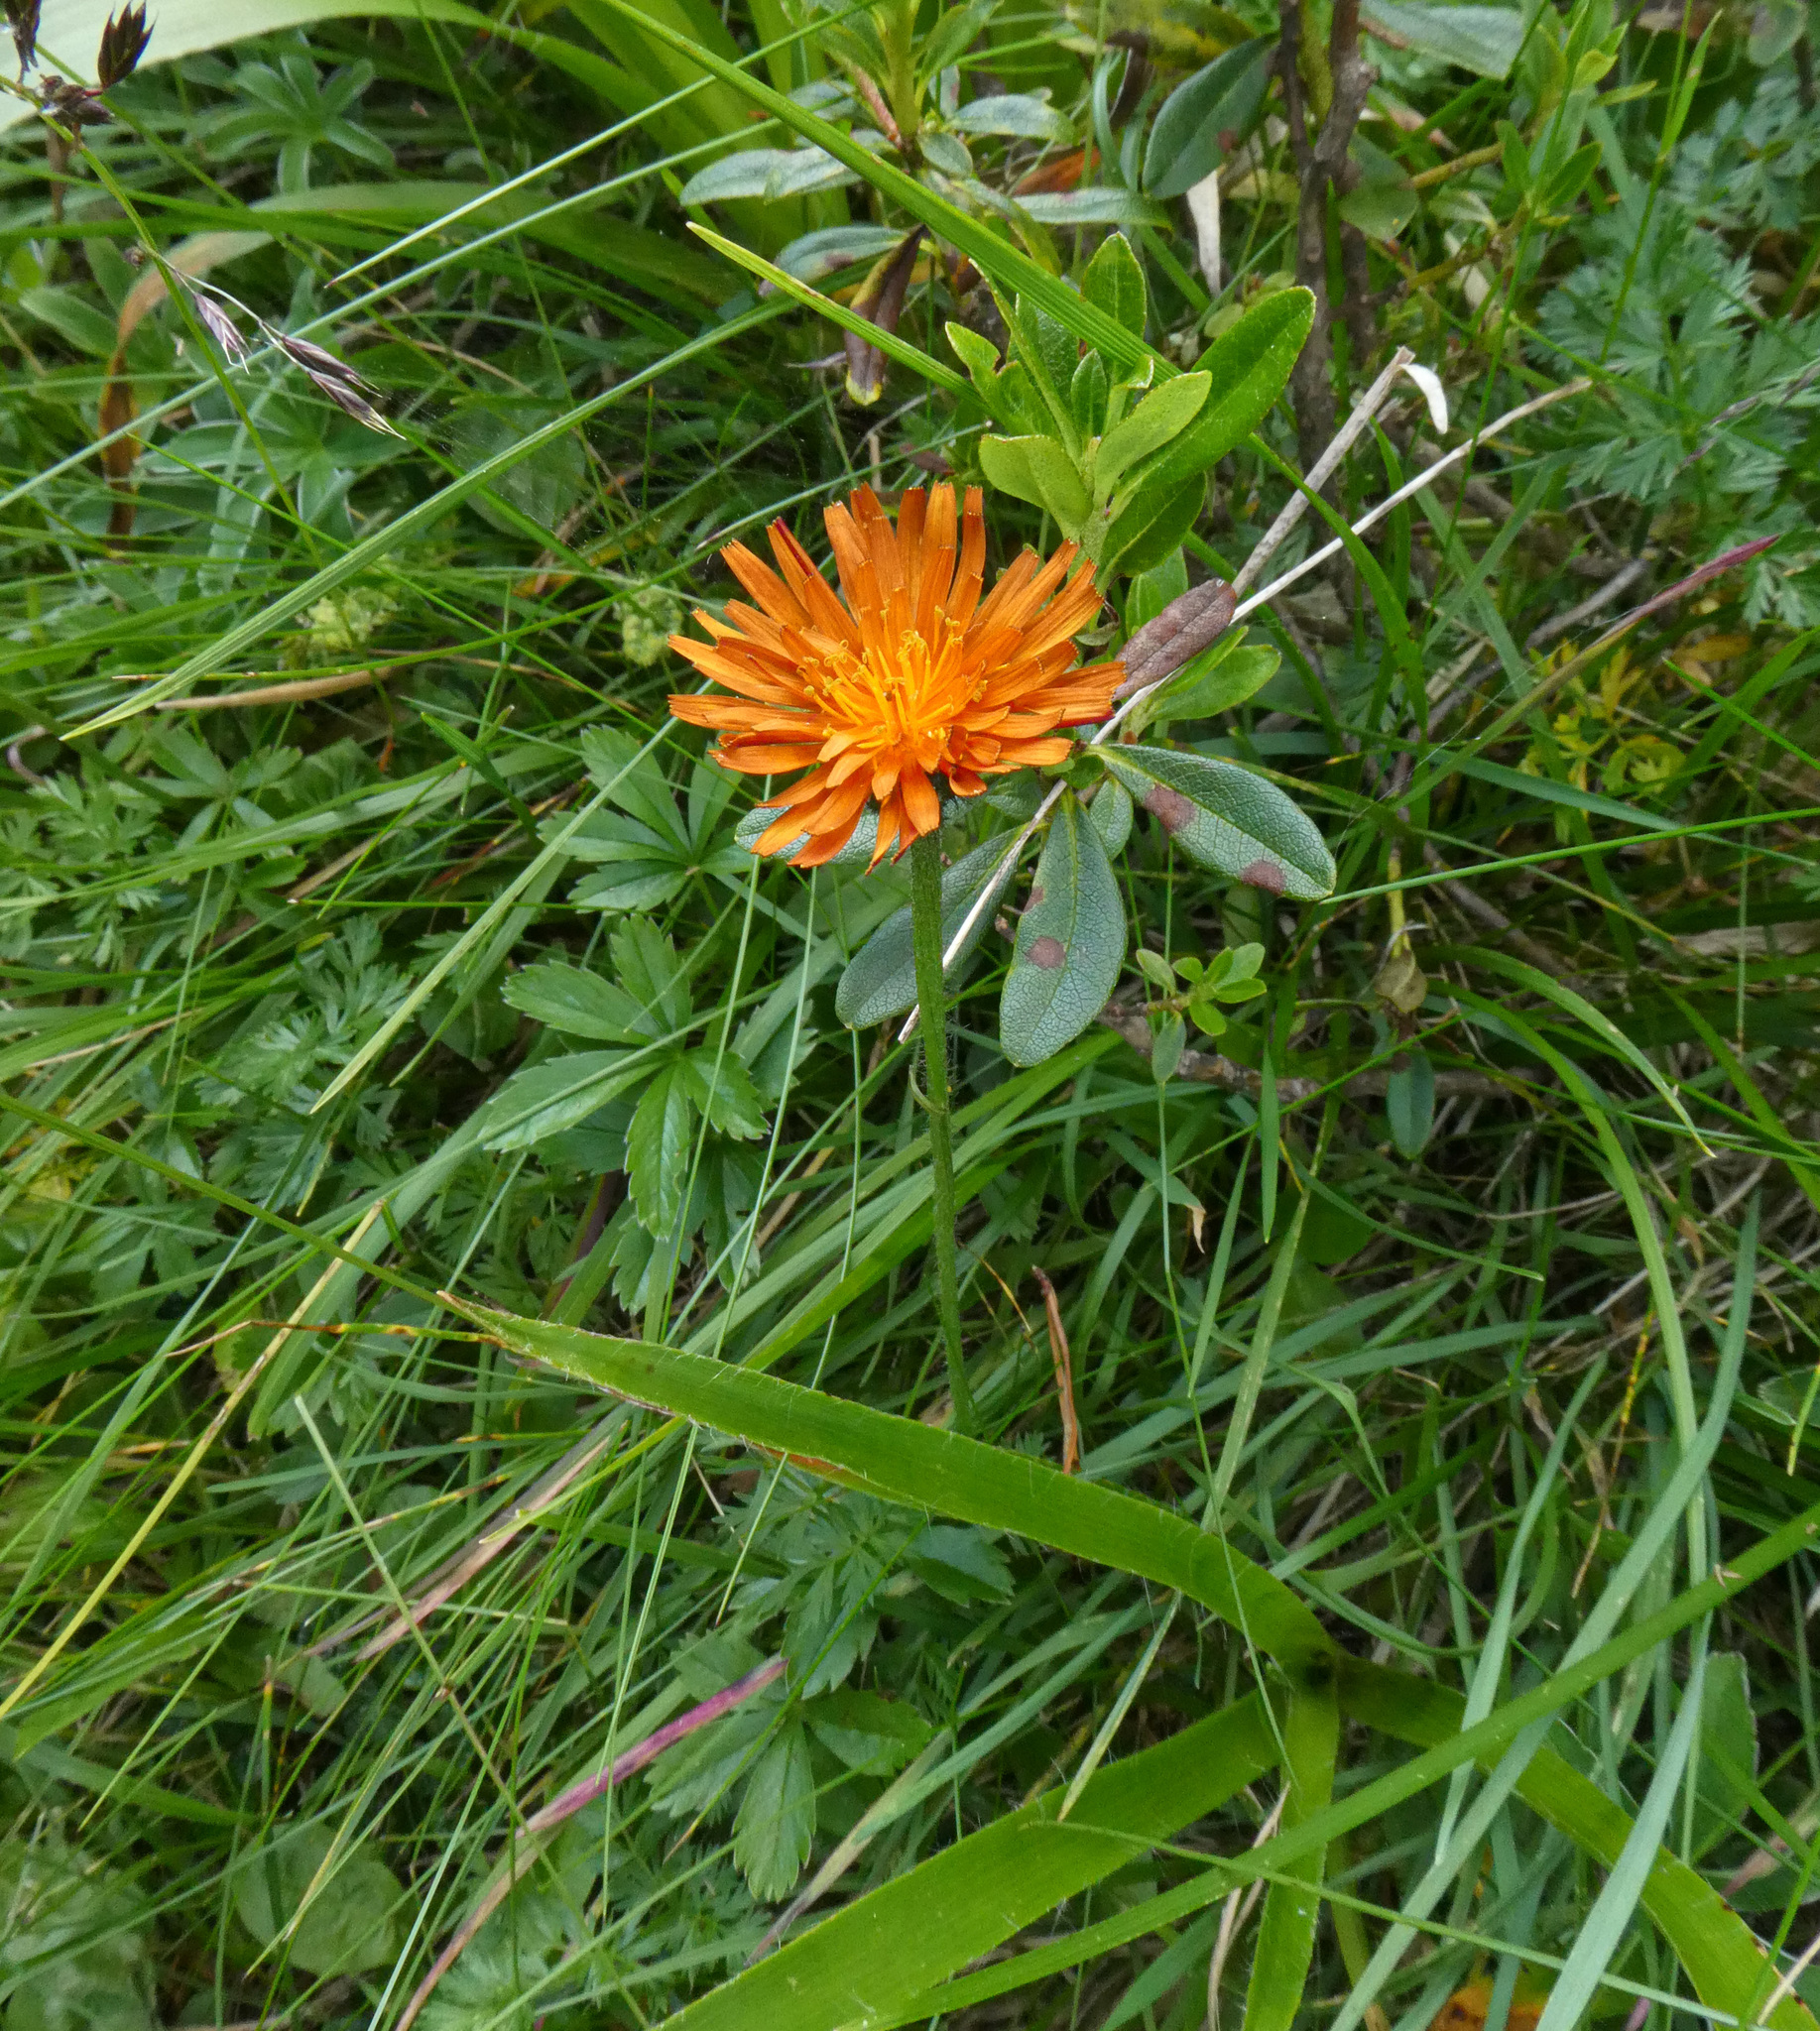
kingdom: Plantae
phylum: Tracheophyta
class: Magnoliopsida
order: Asterales
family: Asteraceae
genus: Crepis
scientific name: Crepis aurea
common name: Golden hawk's-beard
